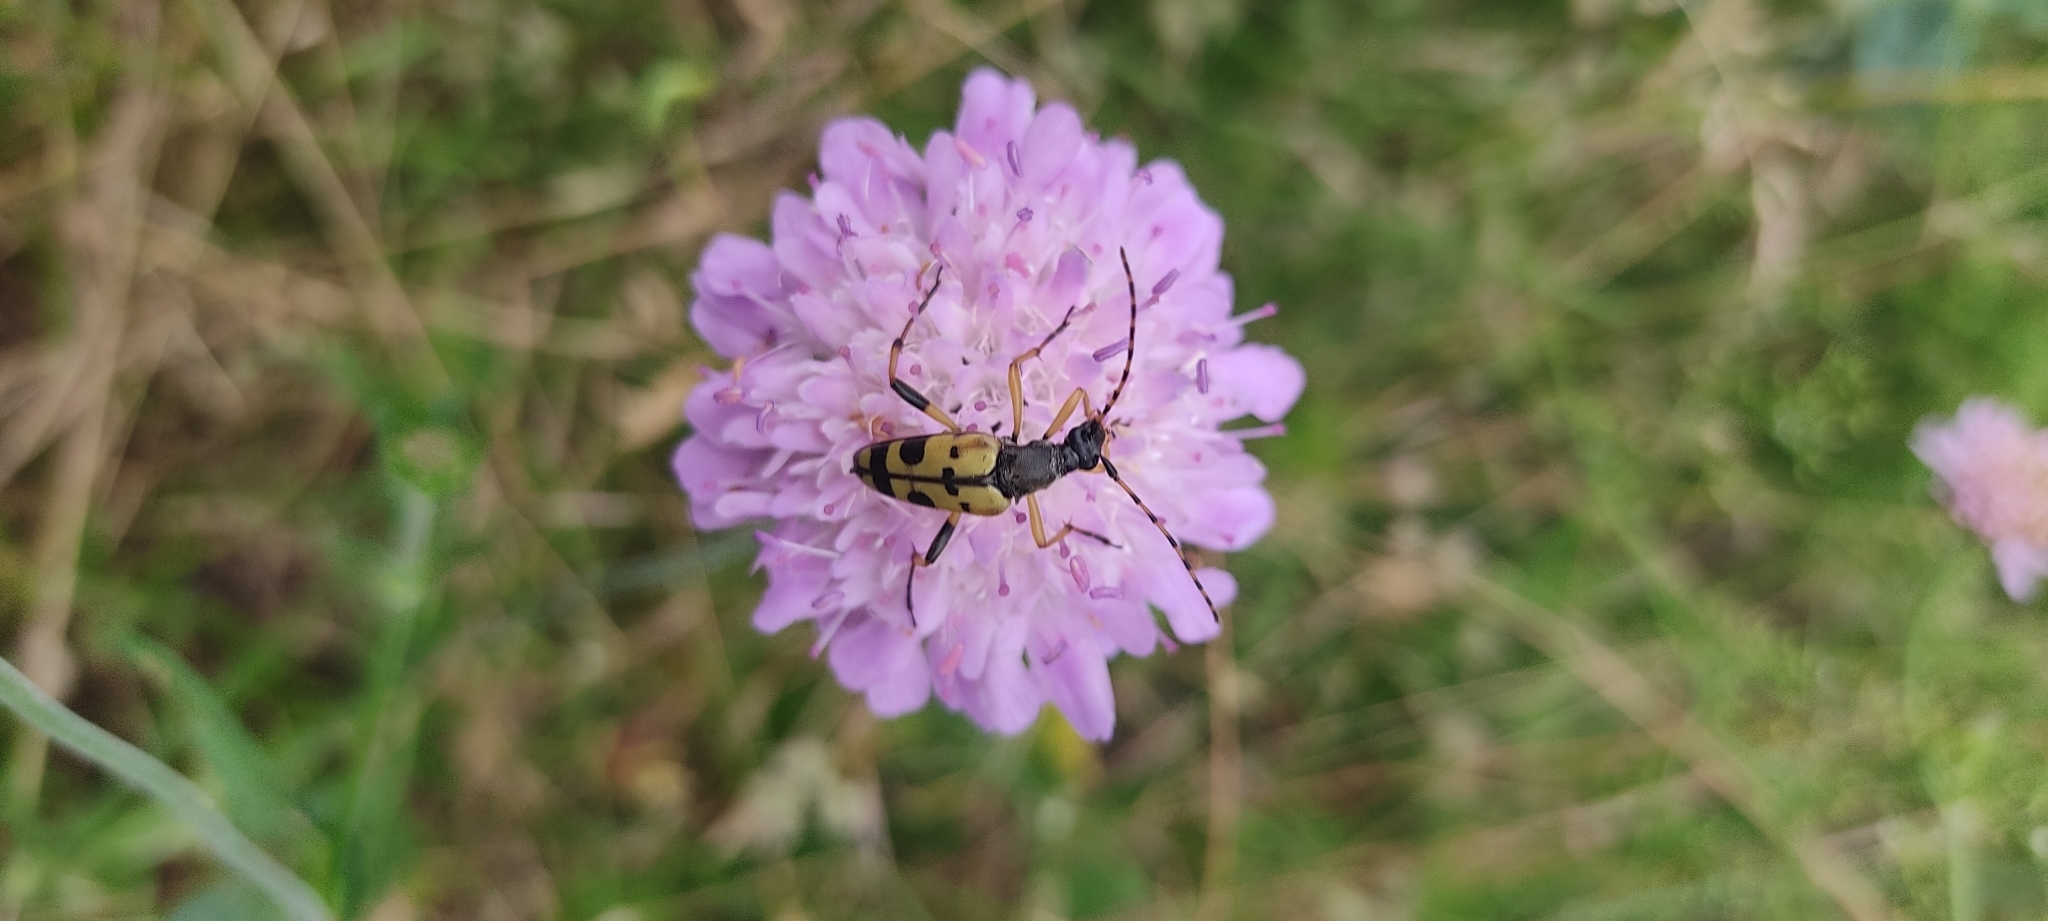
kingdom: Animalia
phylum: Arthropoda
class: Insecta
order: Coleoptera
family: Cerambycidae
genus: Rutpela
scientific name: Rutpela maculata
